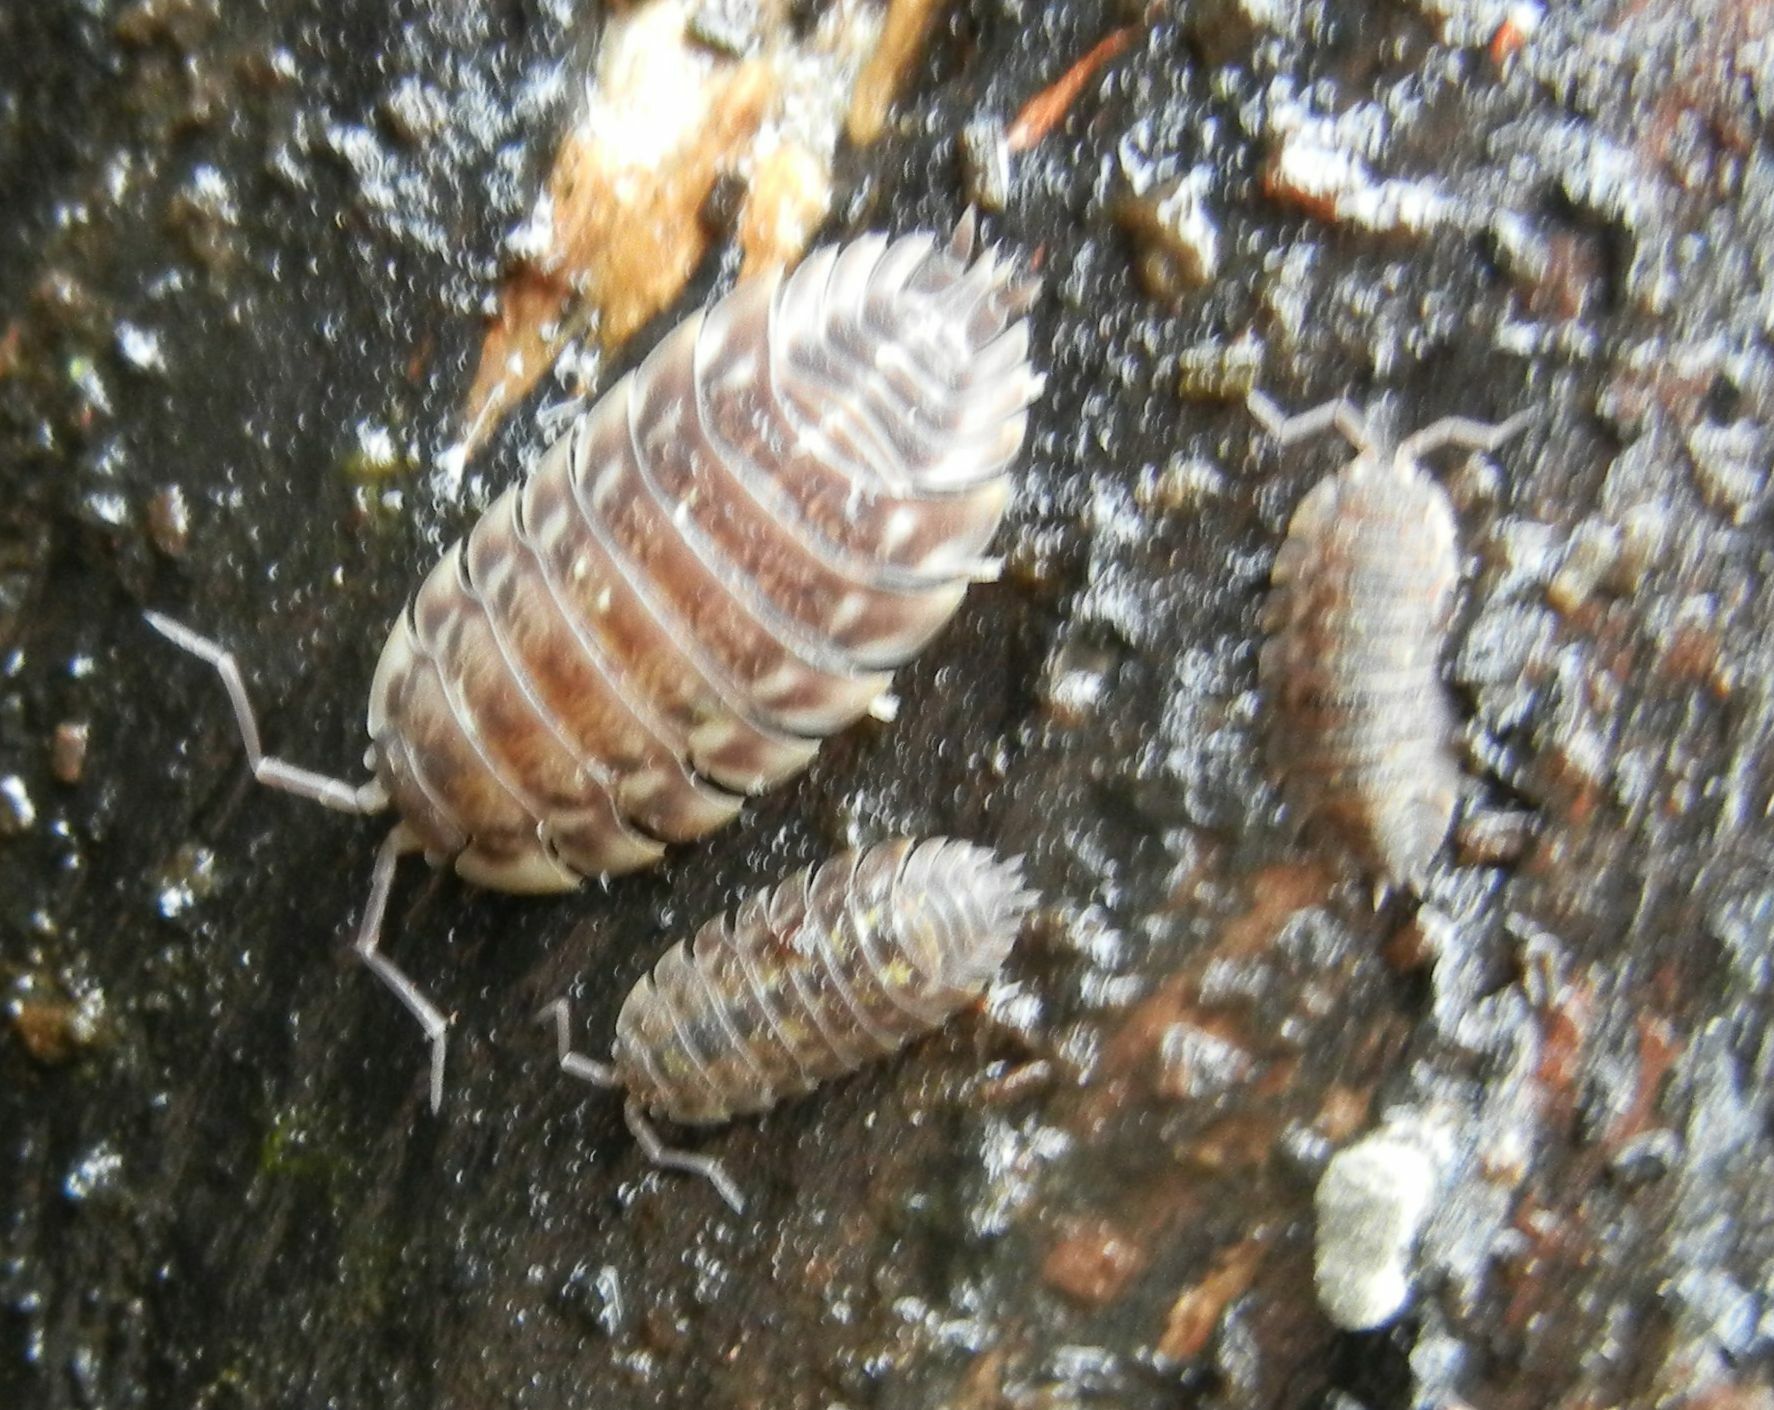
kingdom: Animalia
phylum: Arthropoda
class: Malacostraca
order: Isopoda
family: Oniscidae
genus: Oniscus
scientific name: Oniscus asellus
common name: Common shiny woodlouse
